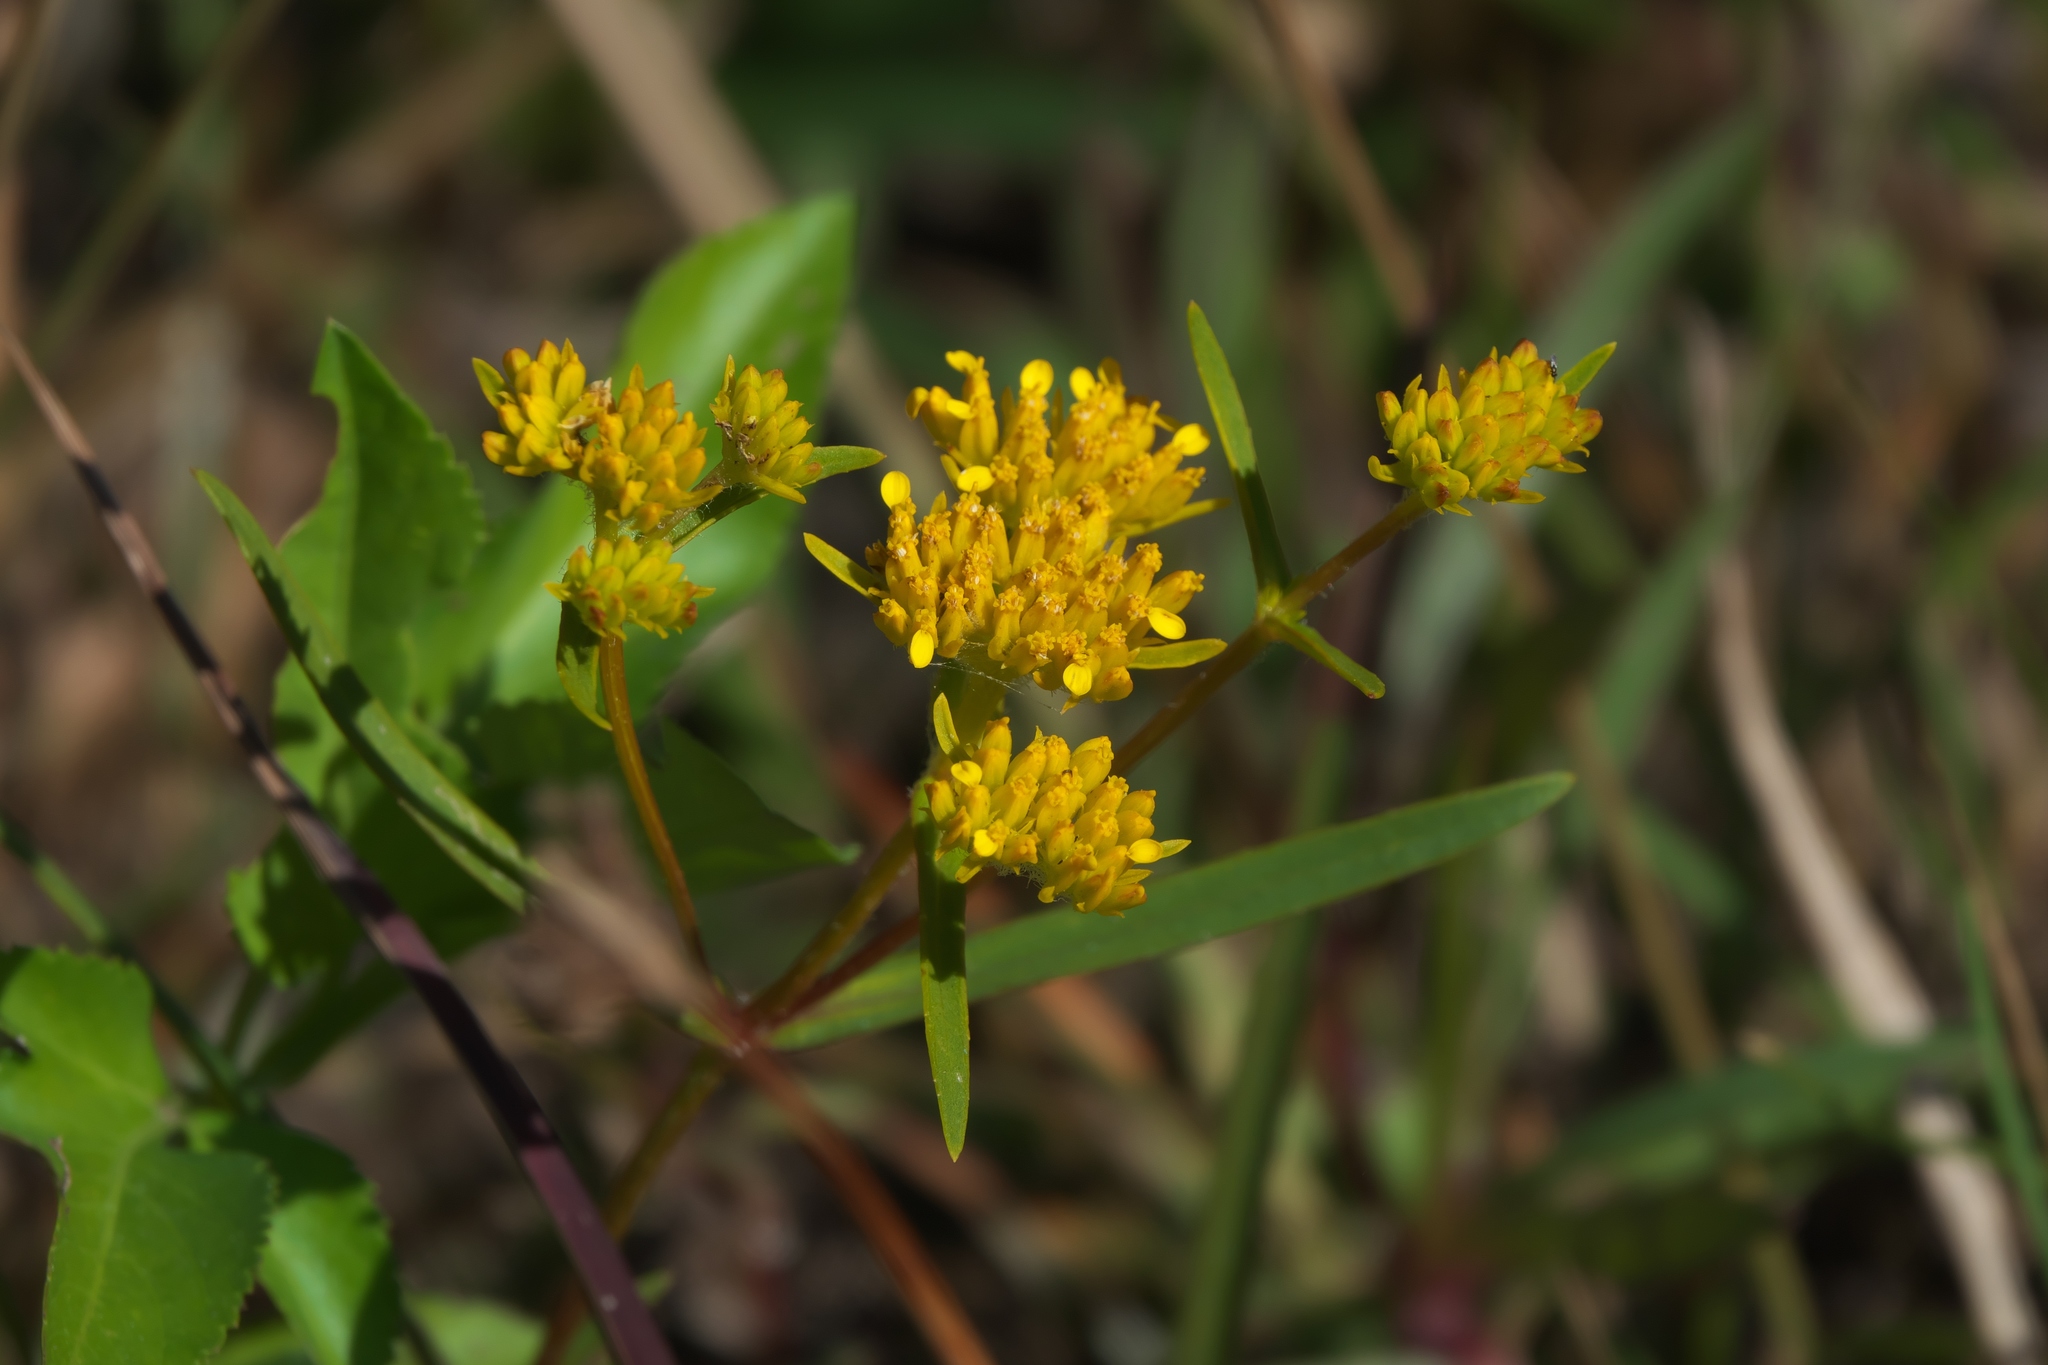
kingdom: Plantae
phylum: Tracheophyta
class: Magnoliopsida
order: Asterales
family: Asteraceae
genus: Flaveria
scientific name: Flaveria floridana
